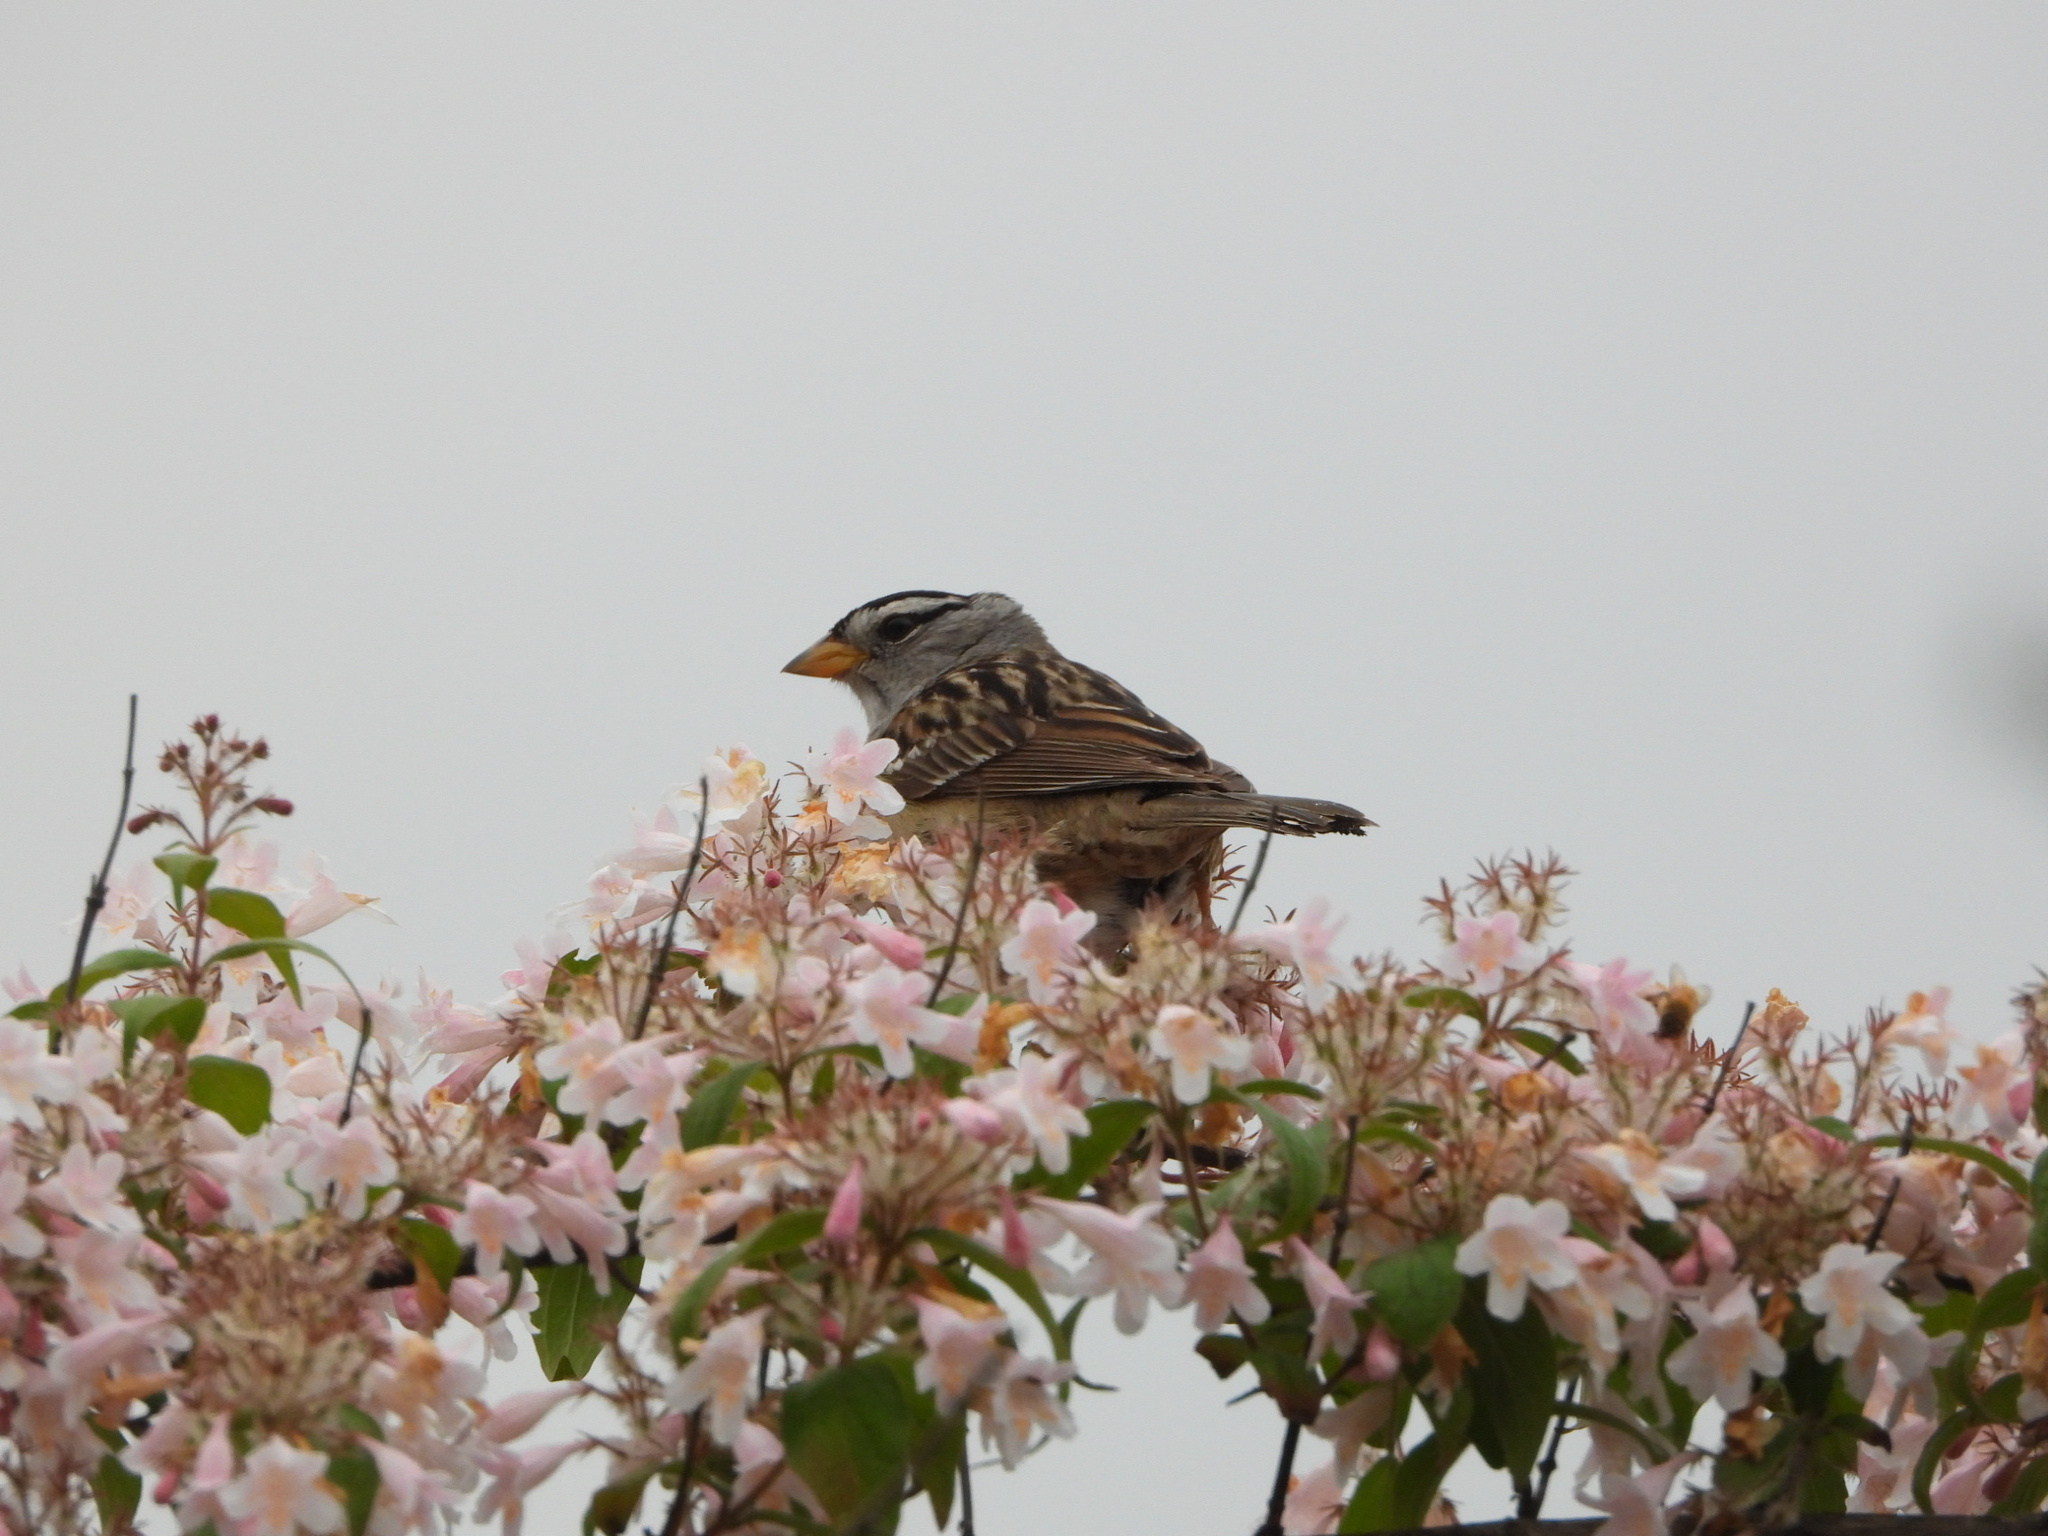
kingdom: Animalia
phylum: Chordata
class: Aves
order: Passeriformes
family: Passerellidae
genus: Zonotrichia
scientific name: Zonotrichia leucophrys
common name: White-crowned sparrow
